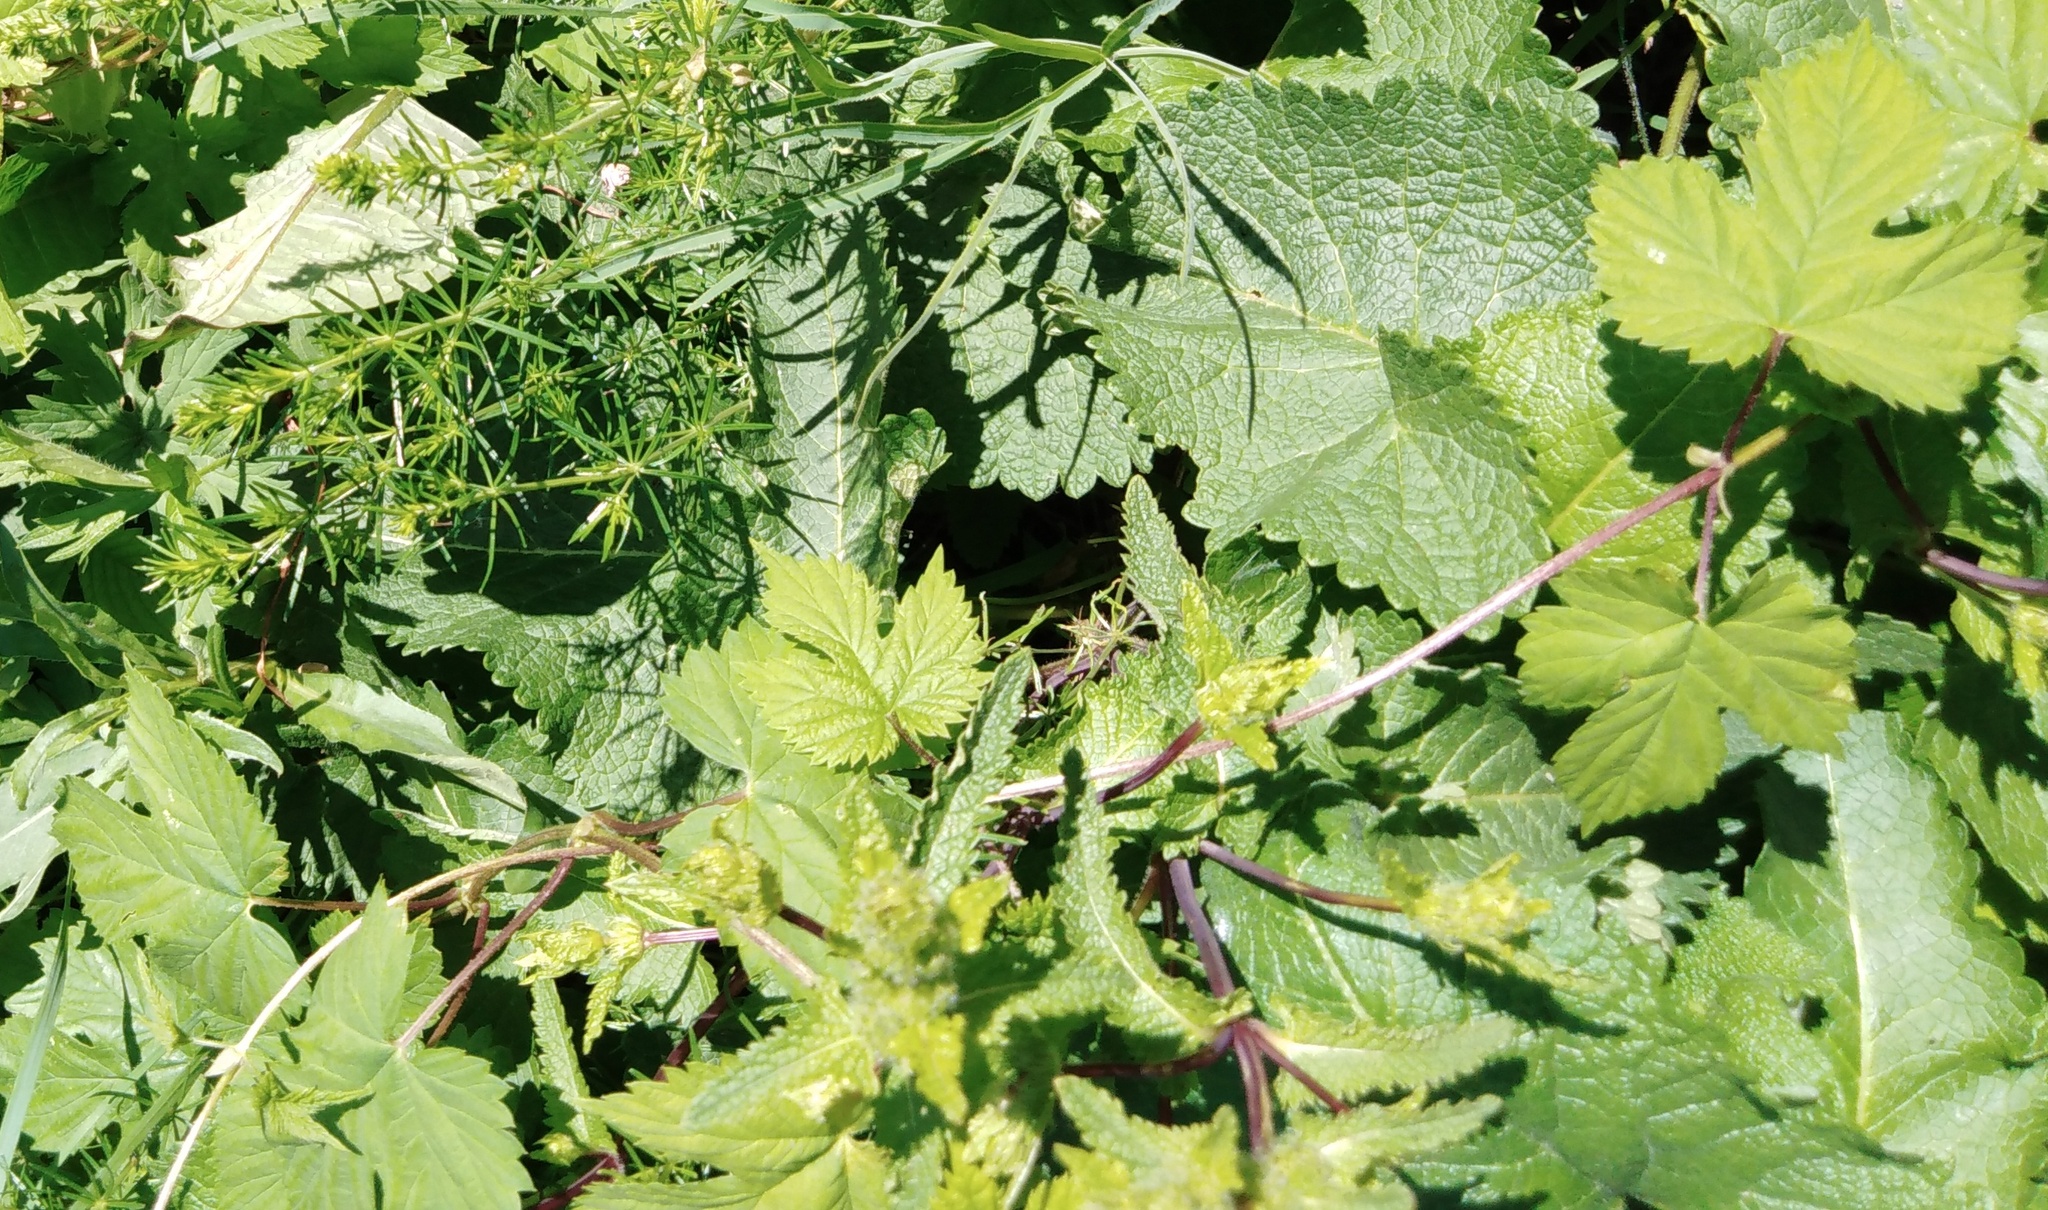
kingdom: Plantae
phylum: Tracheophyta
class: Magnoliopsida
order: Rosales
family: Cannabaceae
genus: Humulus
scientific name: Humulus lupulus
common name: Hop
